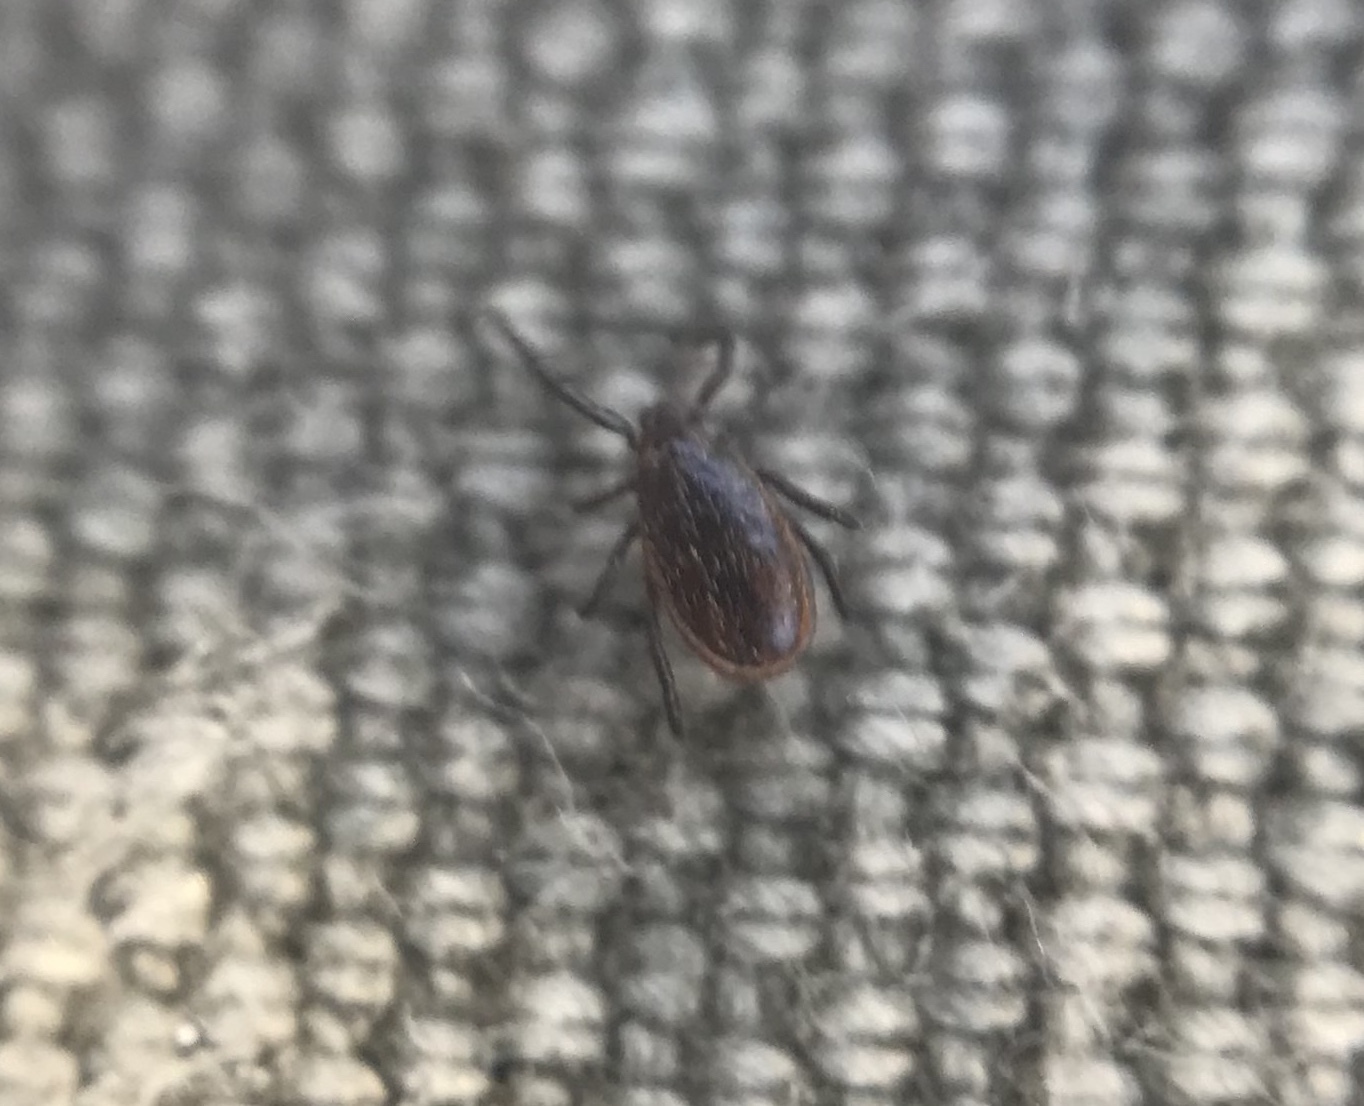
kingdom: Animalia
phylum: Arthropoda
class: Arachnida
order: Ixodida
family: Ixodidae
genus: Ixodes
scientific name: Ixodes pacificus
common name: California black-legged tick
